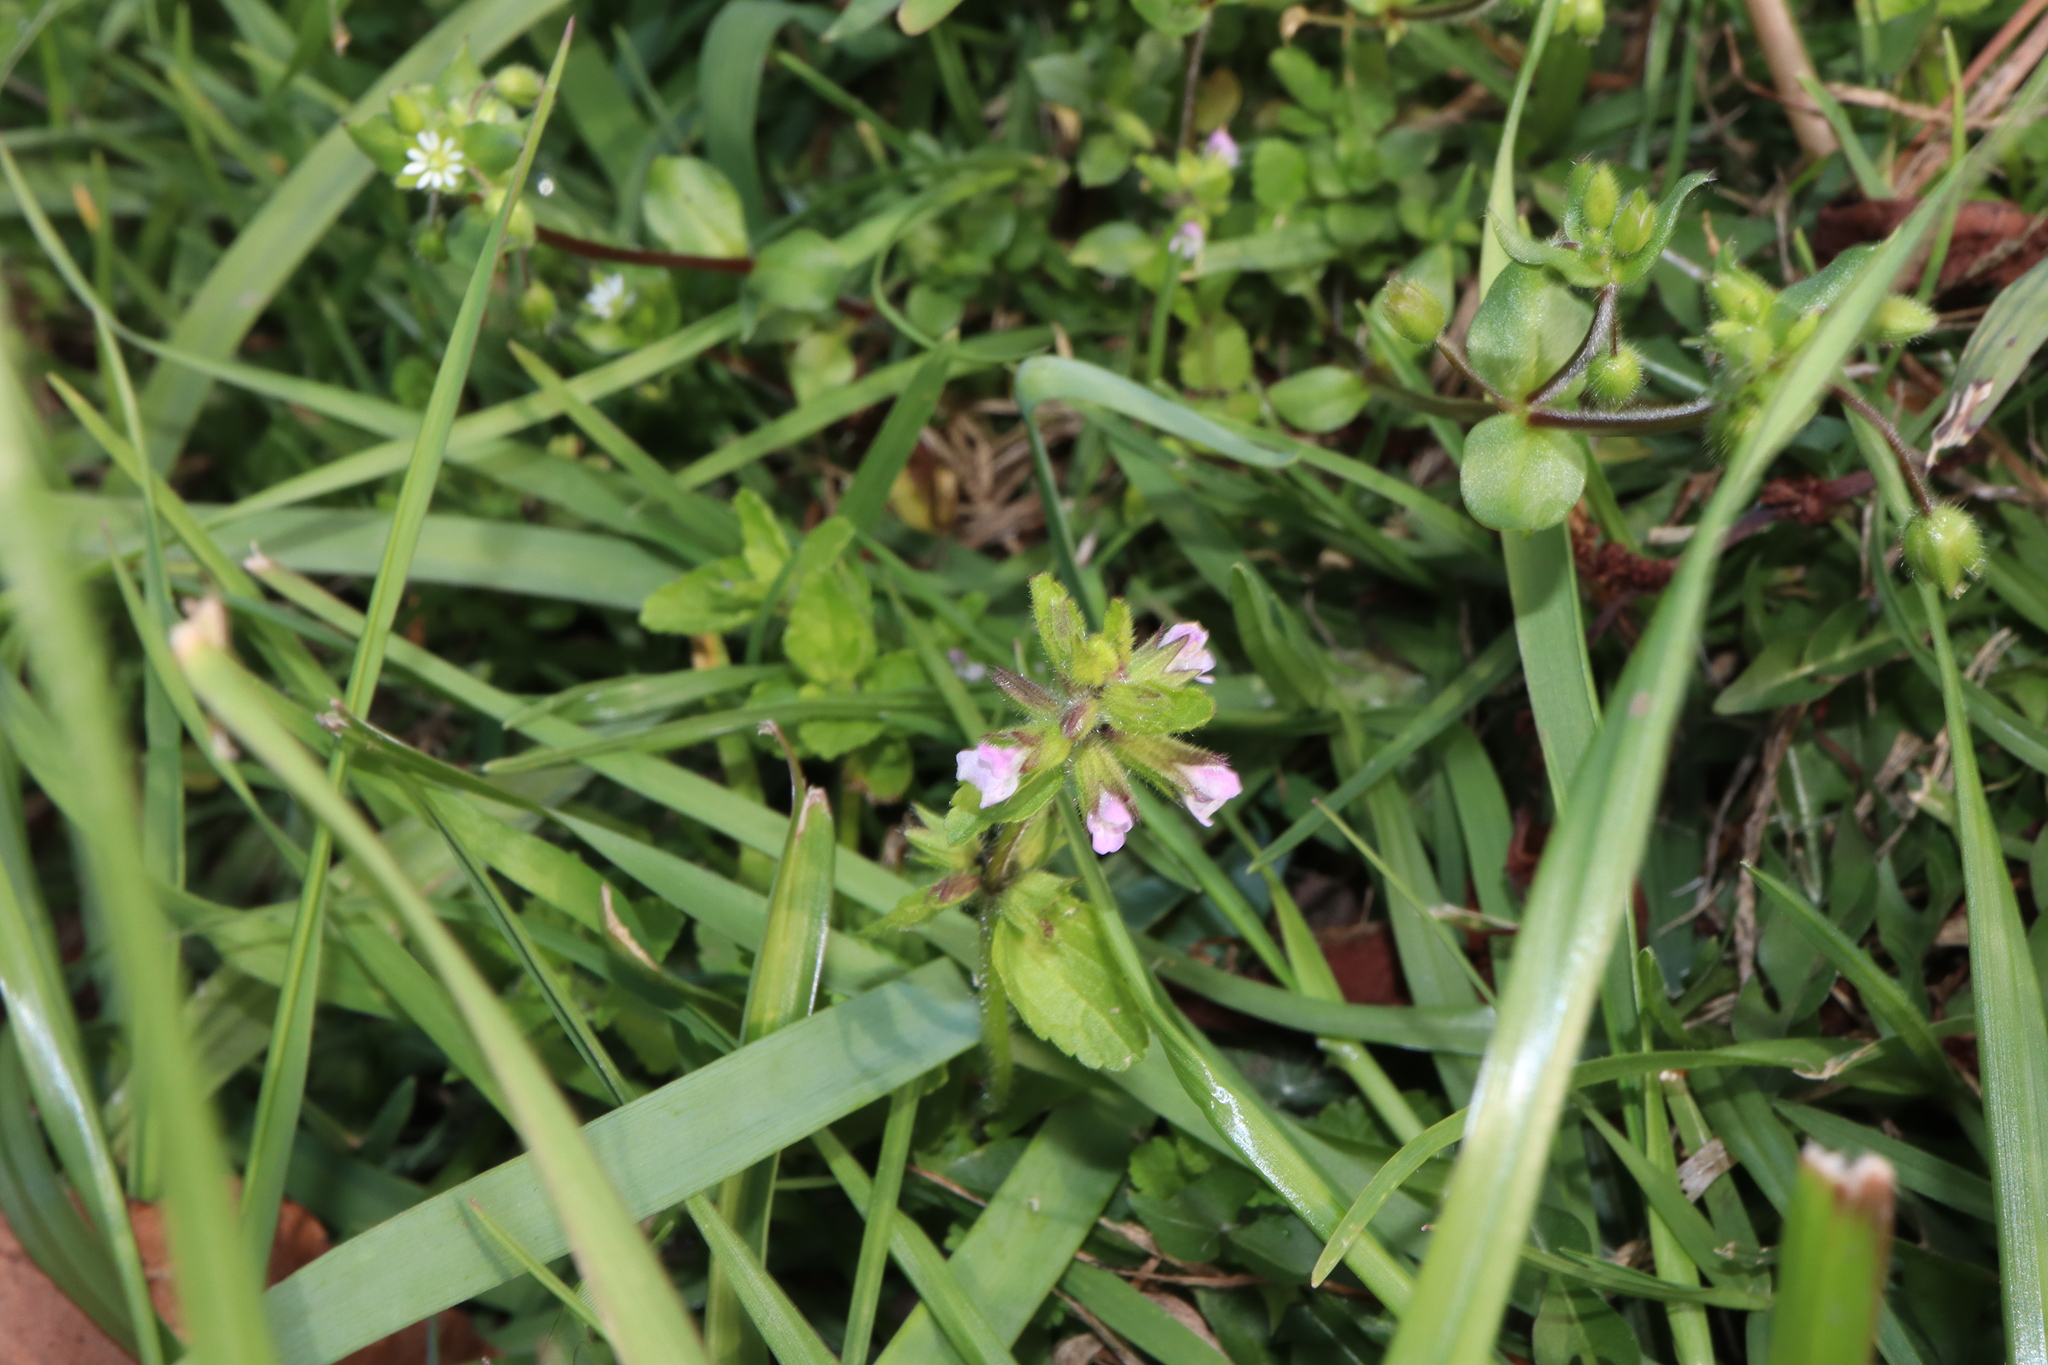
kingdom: Plantae
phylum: Tracheophyta
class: Magnoliopsida
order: Lamiales
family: Lamiaceae
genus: Stachys
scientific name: Stachys arvensis
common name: Field woundwort
